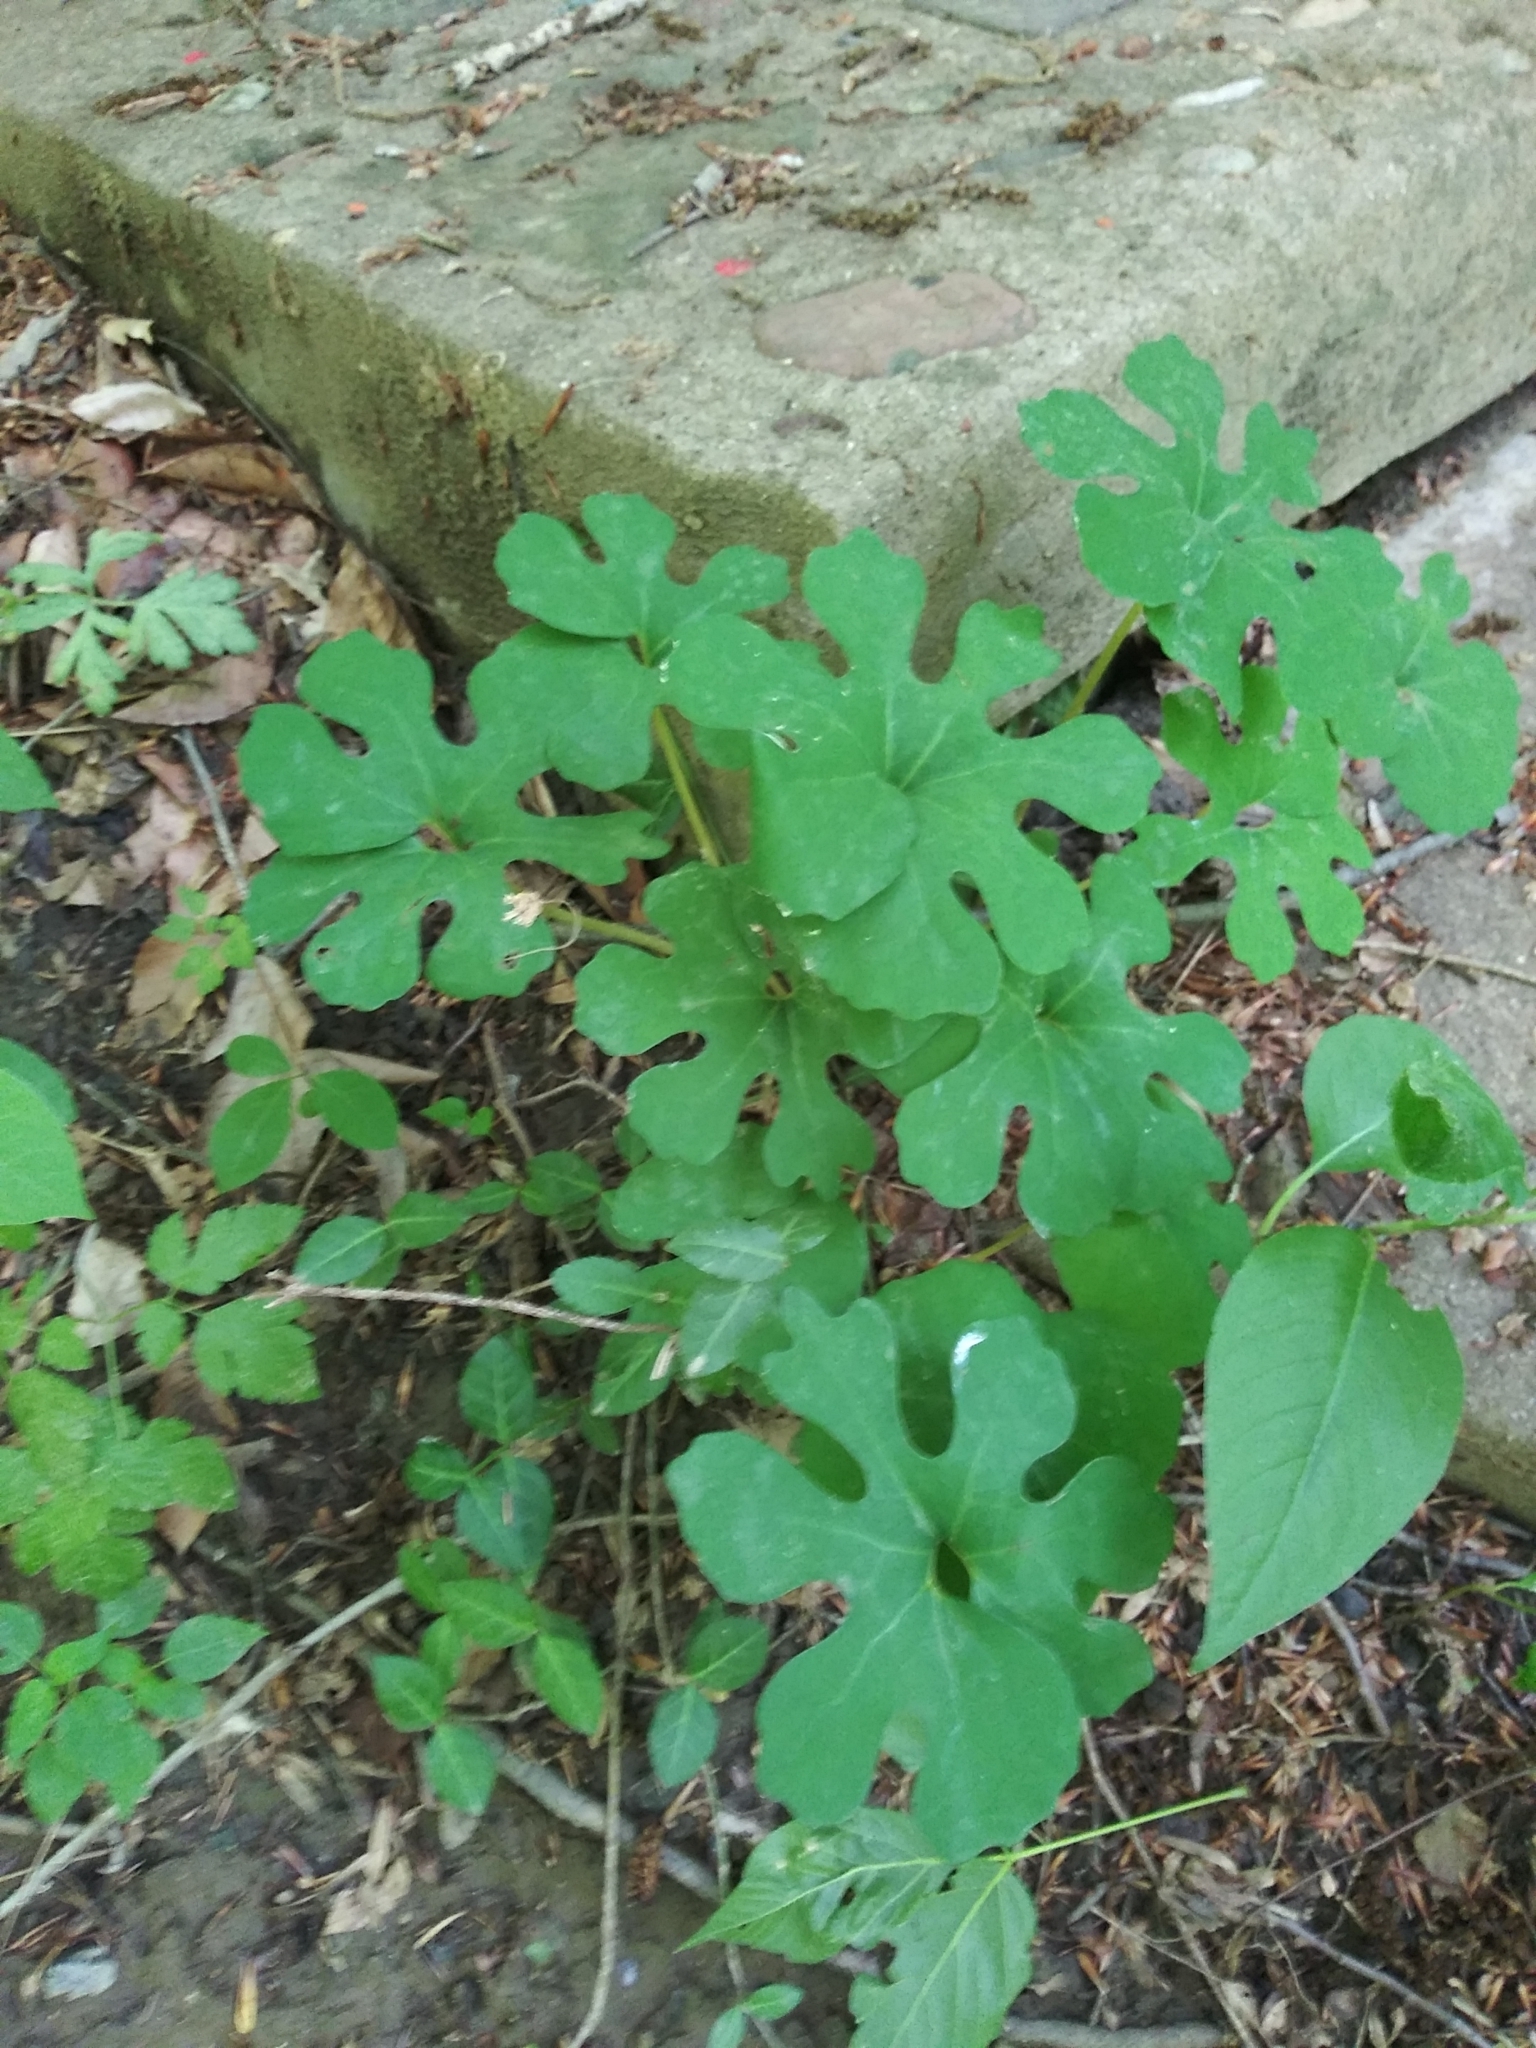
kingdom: Plantae
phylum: Tracheophyta
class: Magnoliopsida
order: Ranunculales
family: Papaveraceae
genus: Sanguinaria
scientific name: Sanguinaria canadensis
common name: Bloodroot
